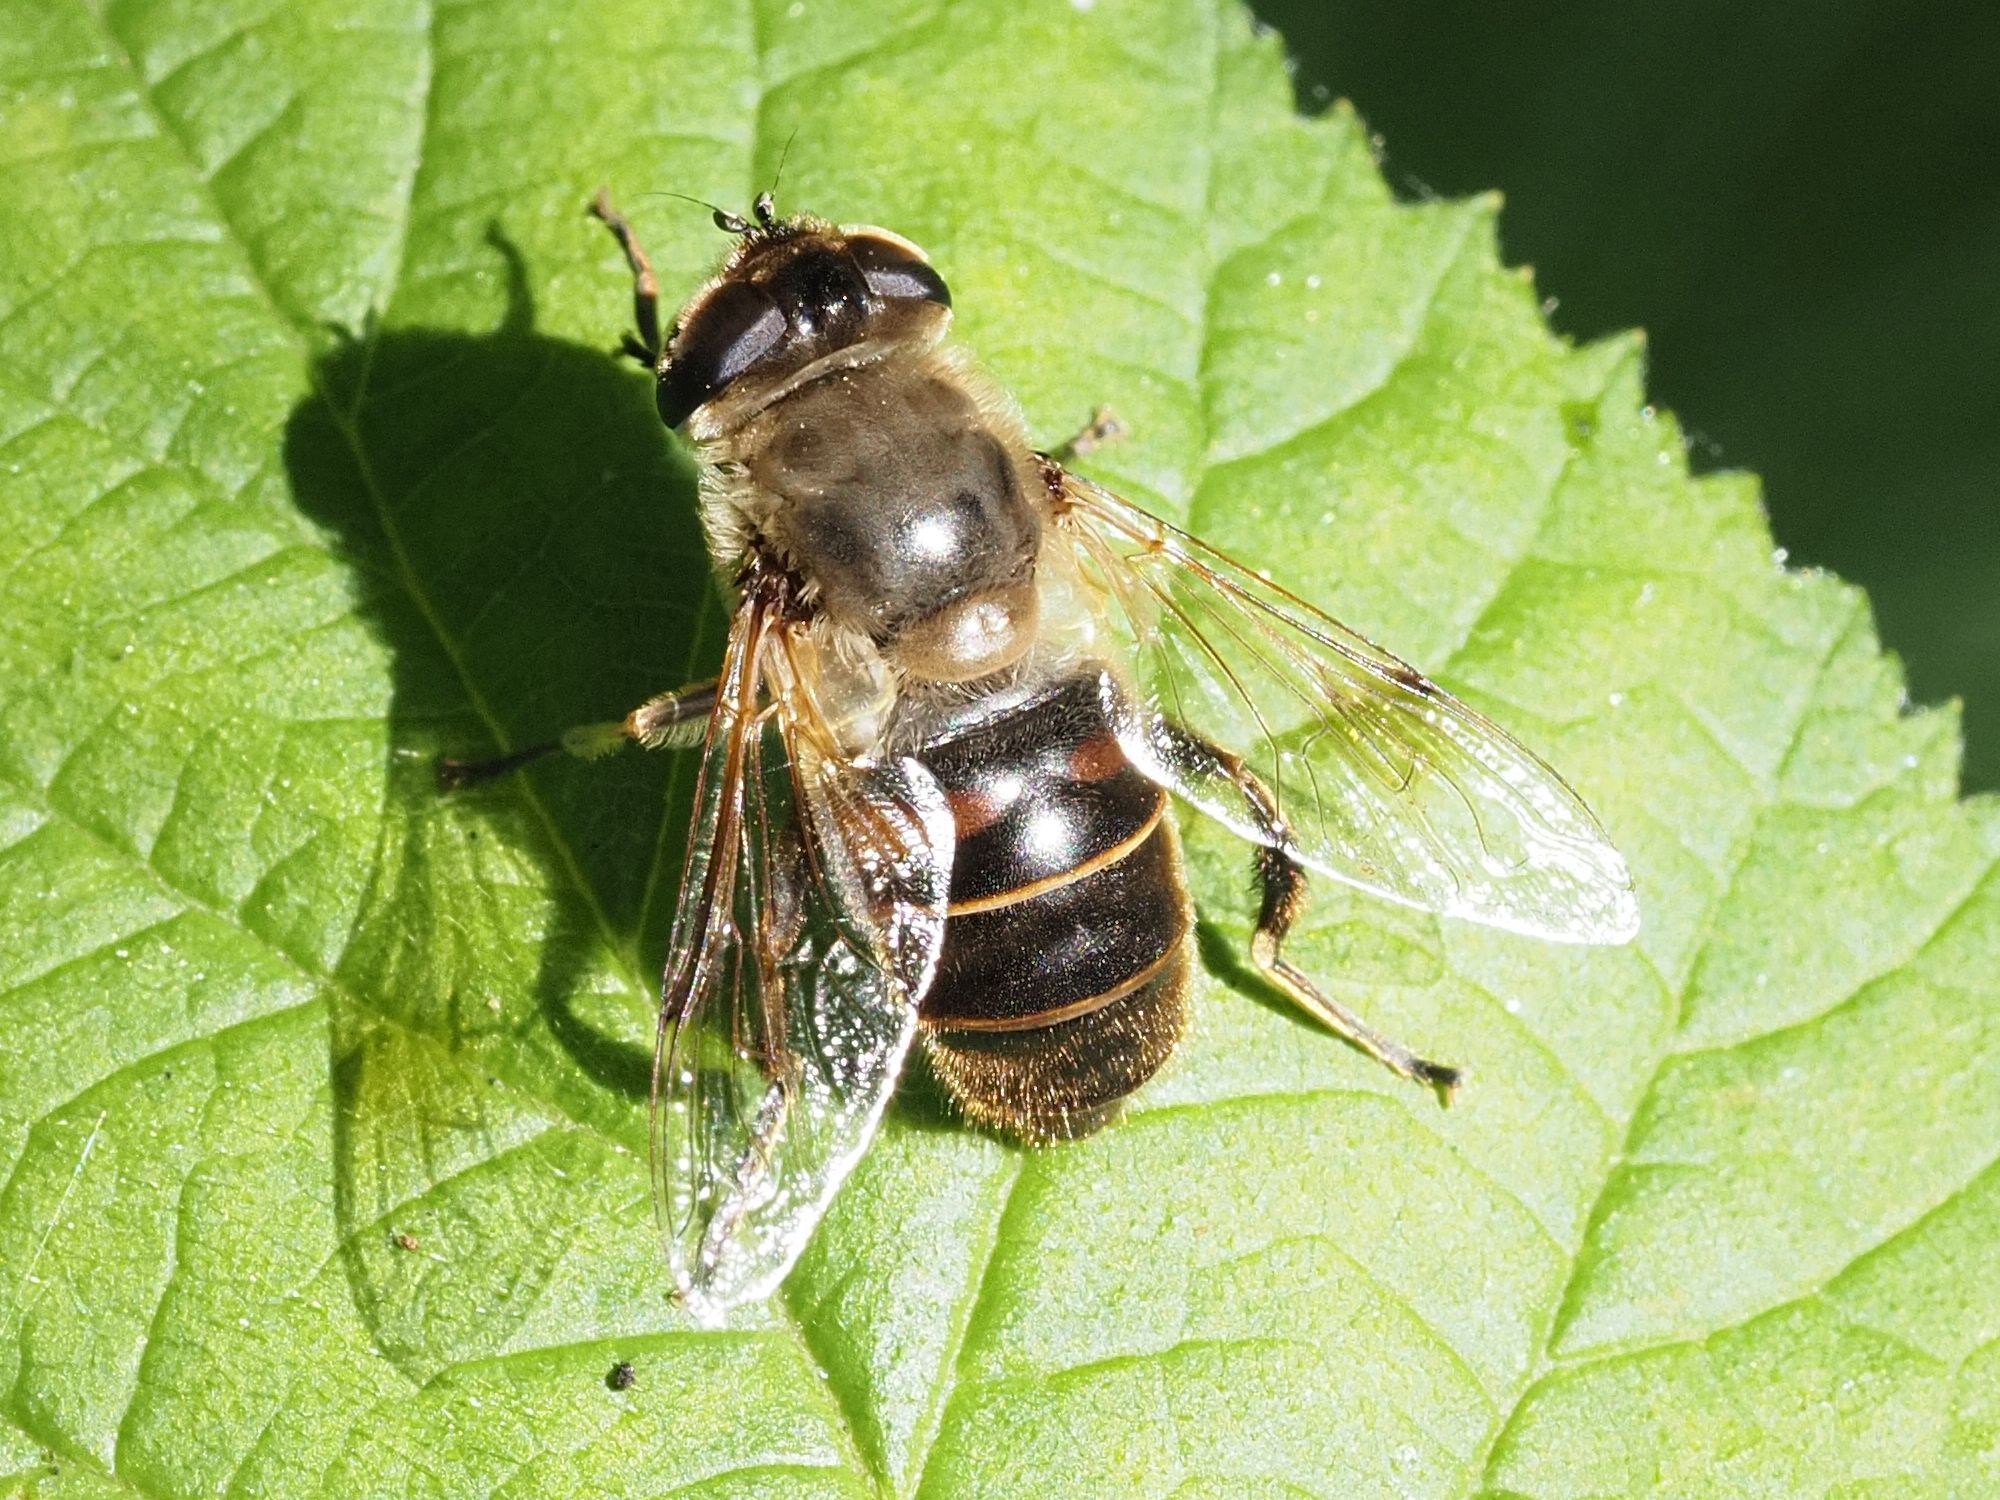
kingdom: Animalia
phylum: Arthropoda
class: Insecta
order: Diptera
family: Syrphidae
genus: Eristalis
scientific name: Eristalis tenax
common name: Drone fly
